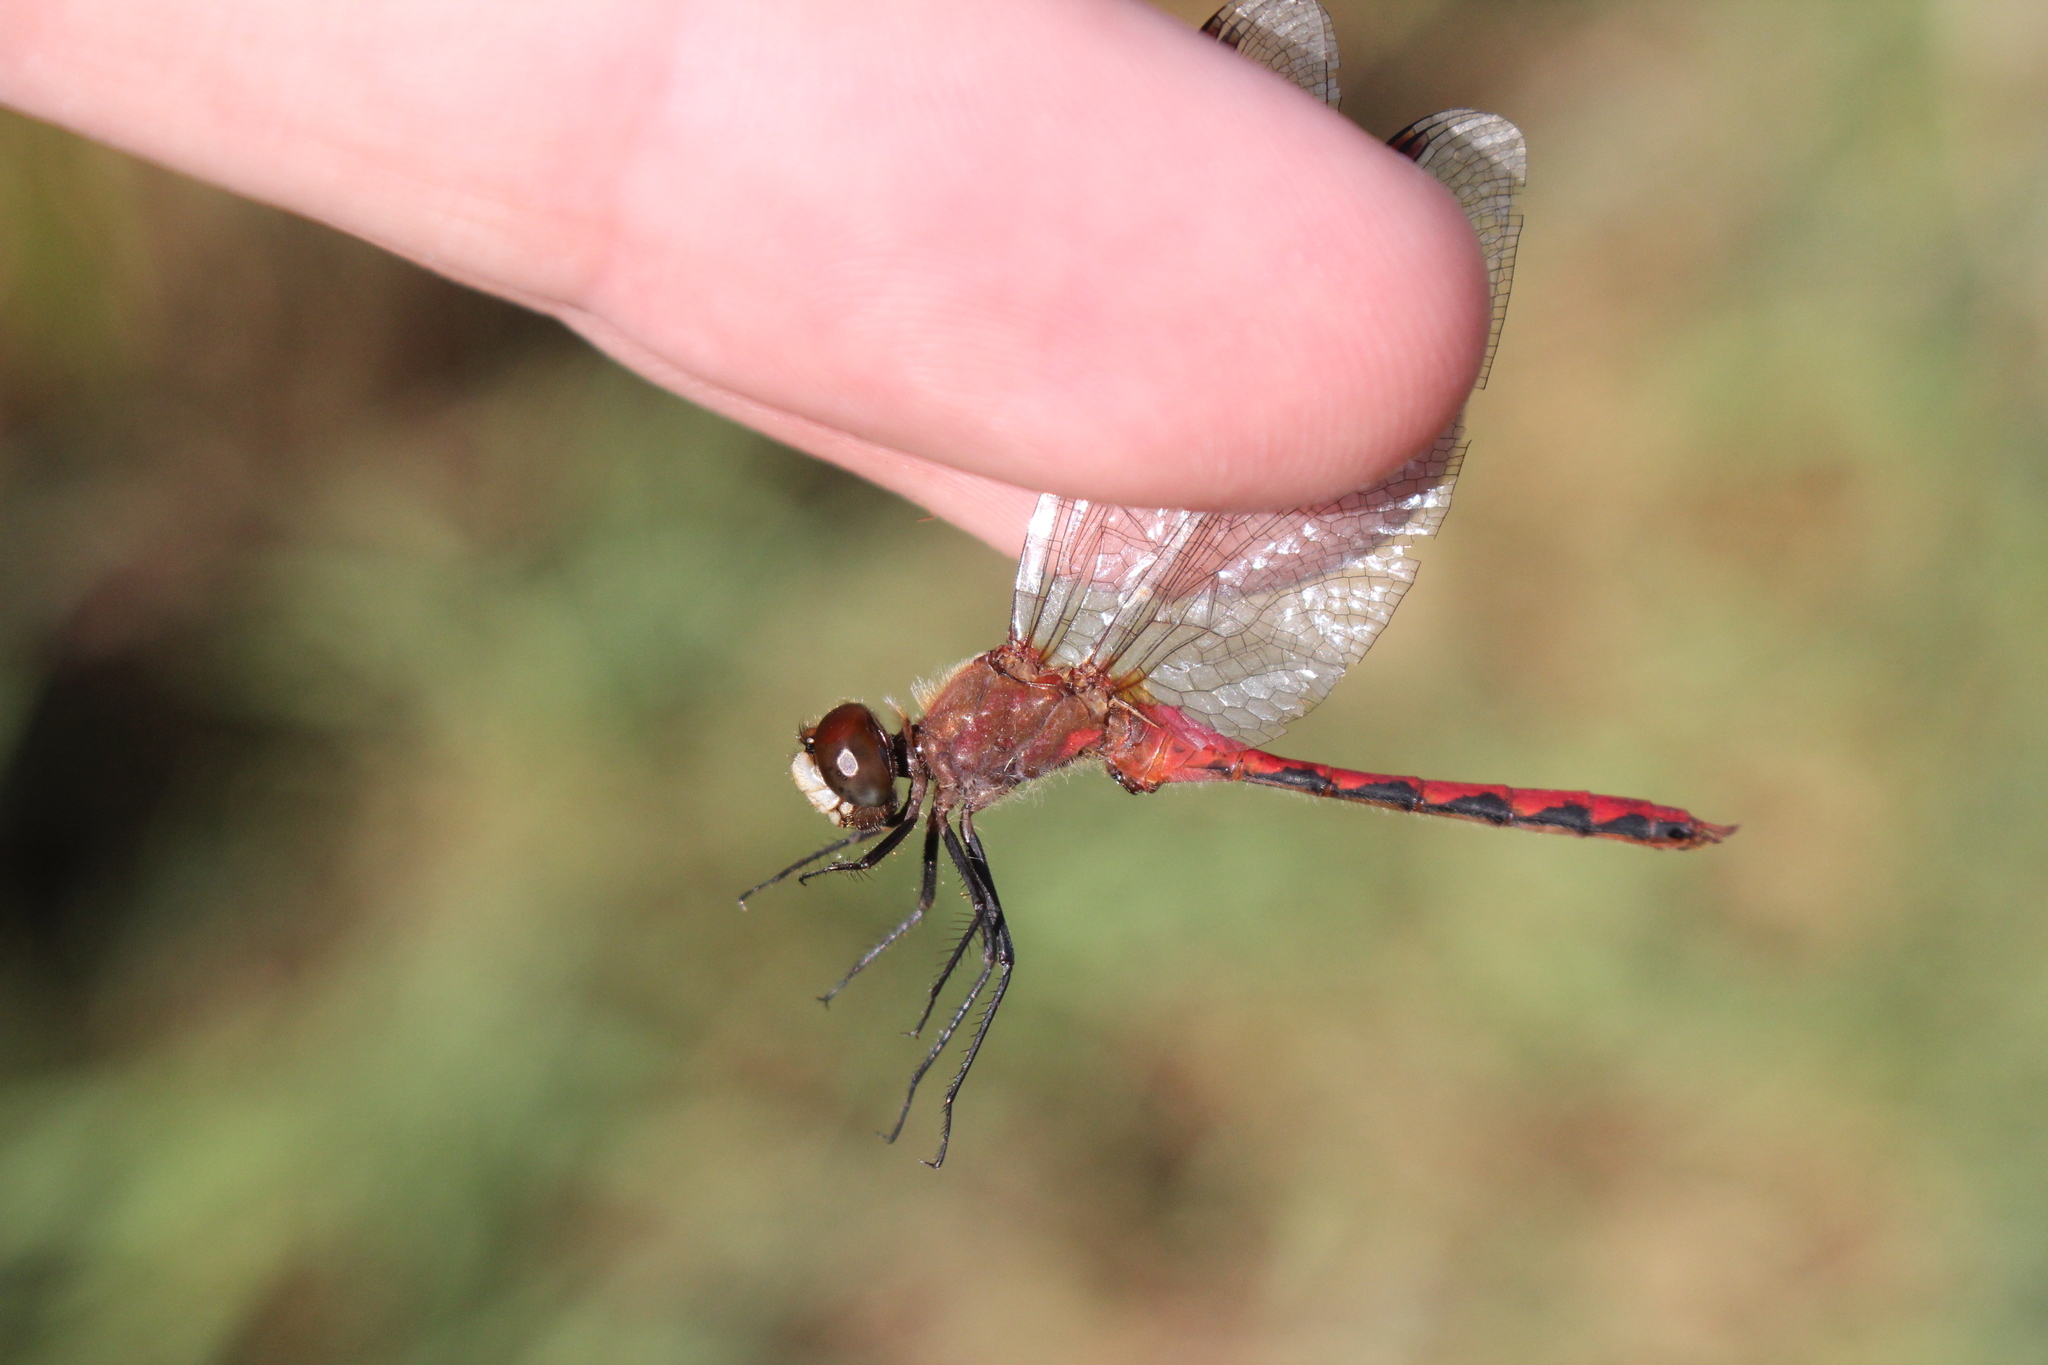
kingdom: Animalia
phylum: Arthropoda
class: Insecta
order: Odonata
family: Libellulidae
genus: Sympetrum
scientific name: Sympetrum obtrusum
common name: White-faced meadowhawk
